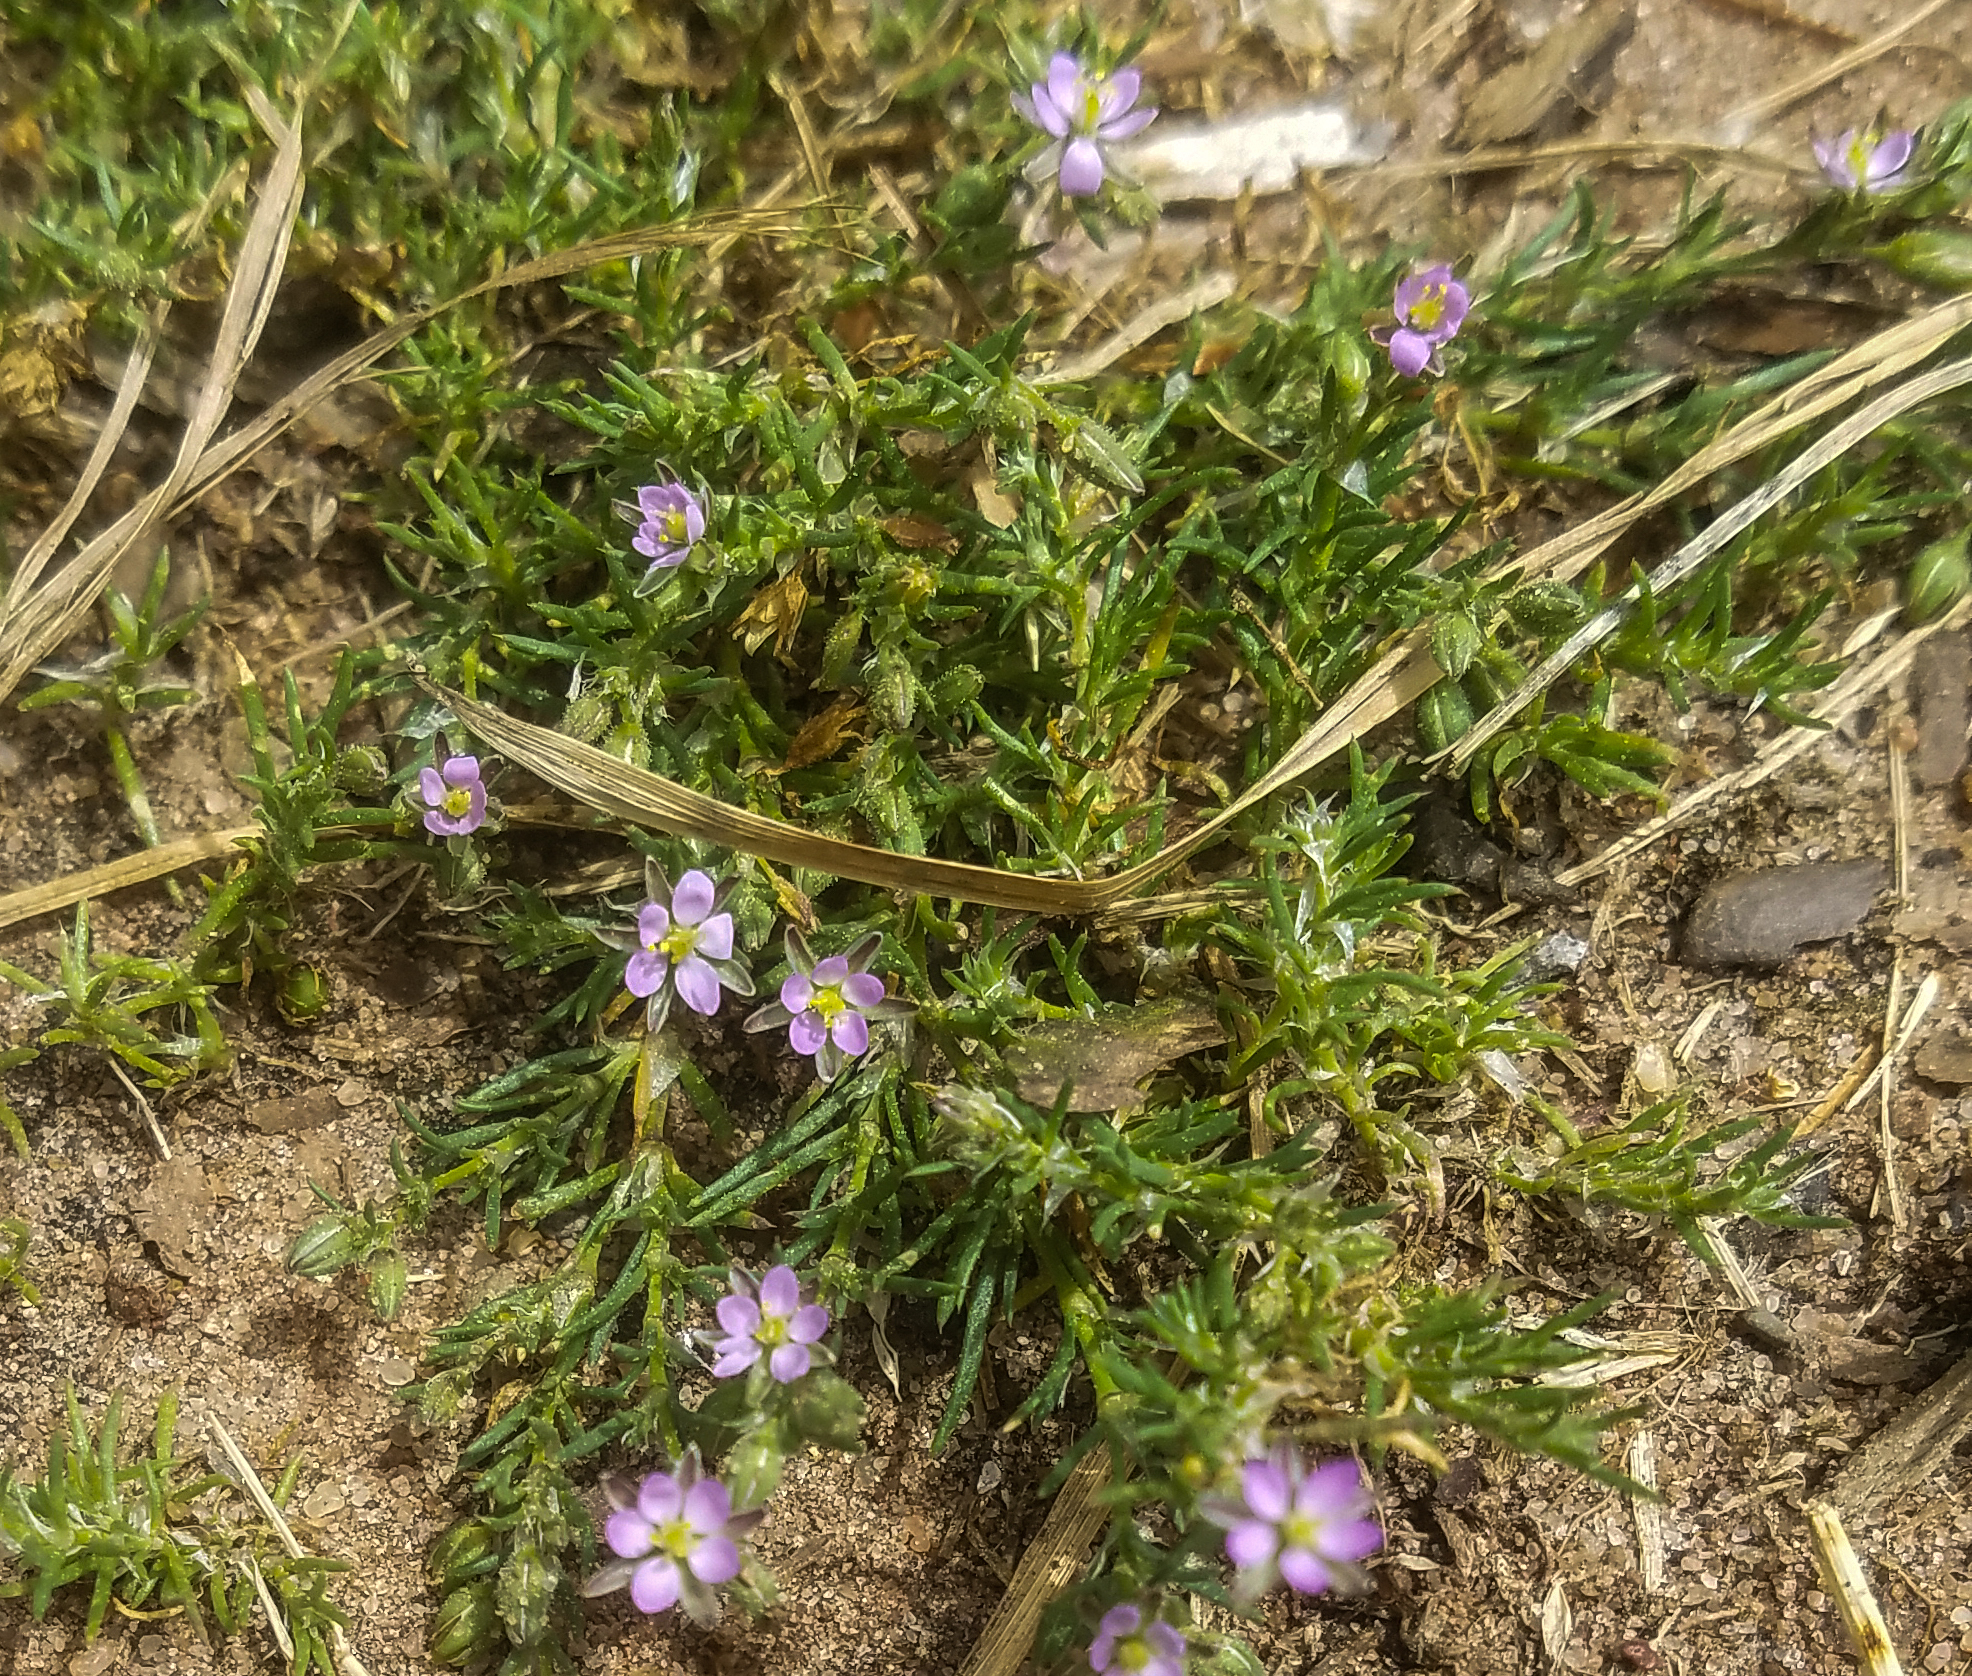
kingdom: Plantae
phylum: Tracheophyta
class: Magnoliopsida
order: Caryophyllales
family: Caryophyllaceae
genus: Spergularia
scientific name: Spergularia rubra
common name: Red sand-spurrey
